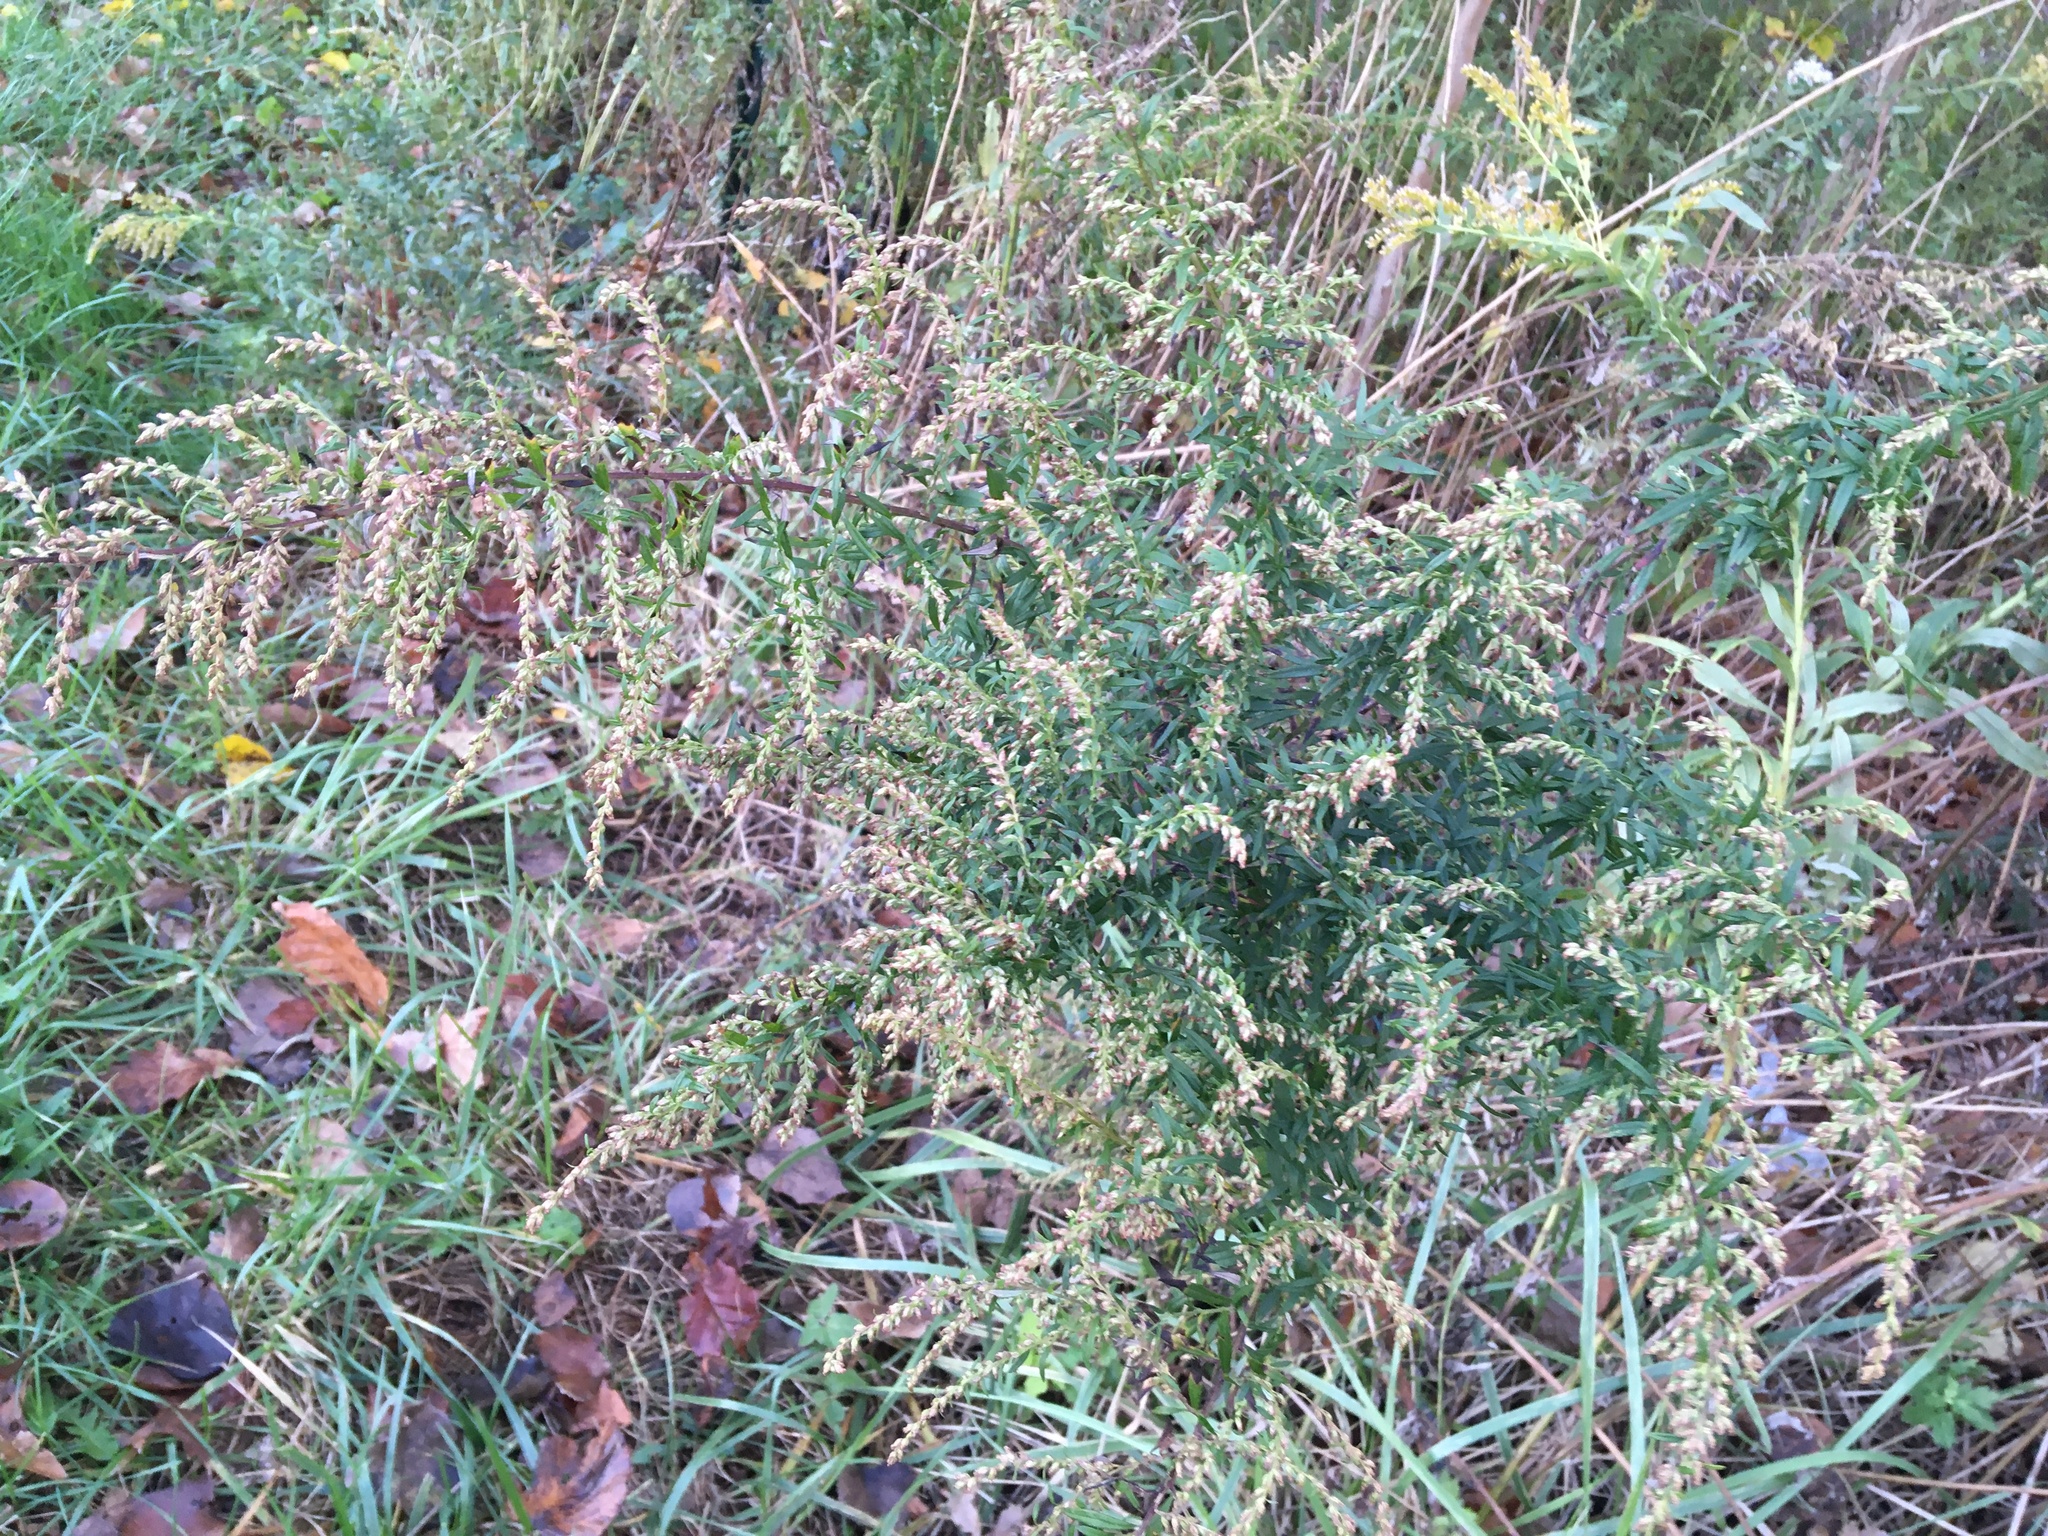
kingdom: Plantae
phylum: Tracheophyta
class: Magnoliopsida
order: Asterales
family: Asteraceae
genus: Artemisia
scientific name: Artemisia vulgaris
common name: Mugwort
